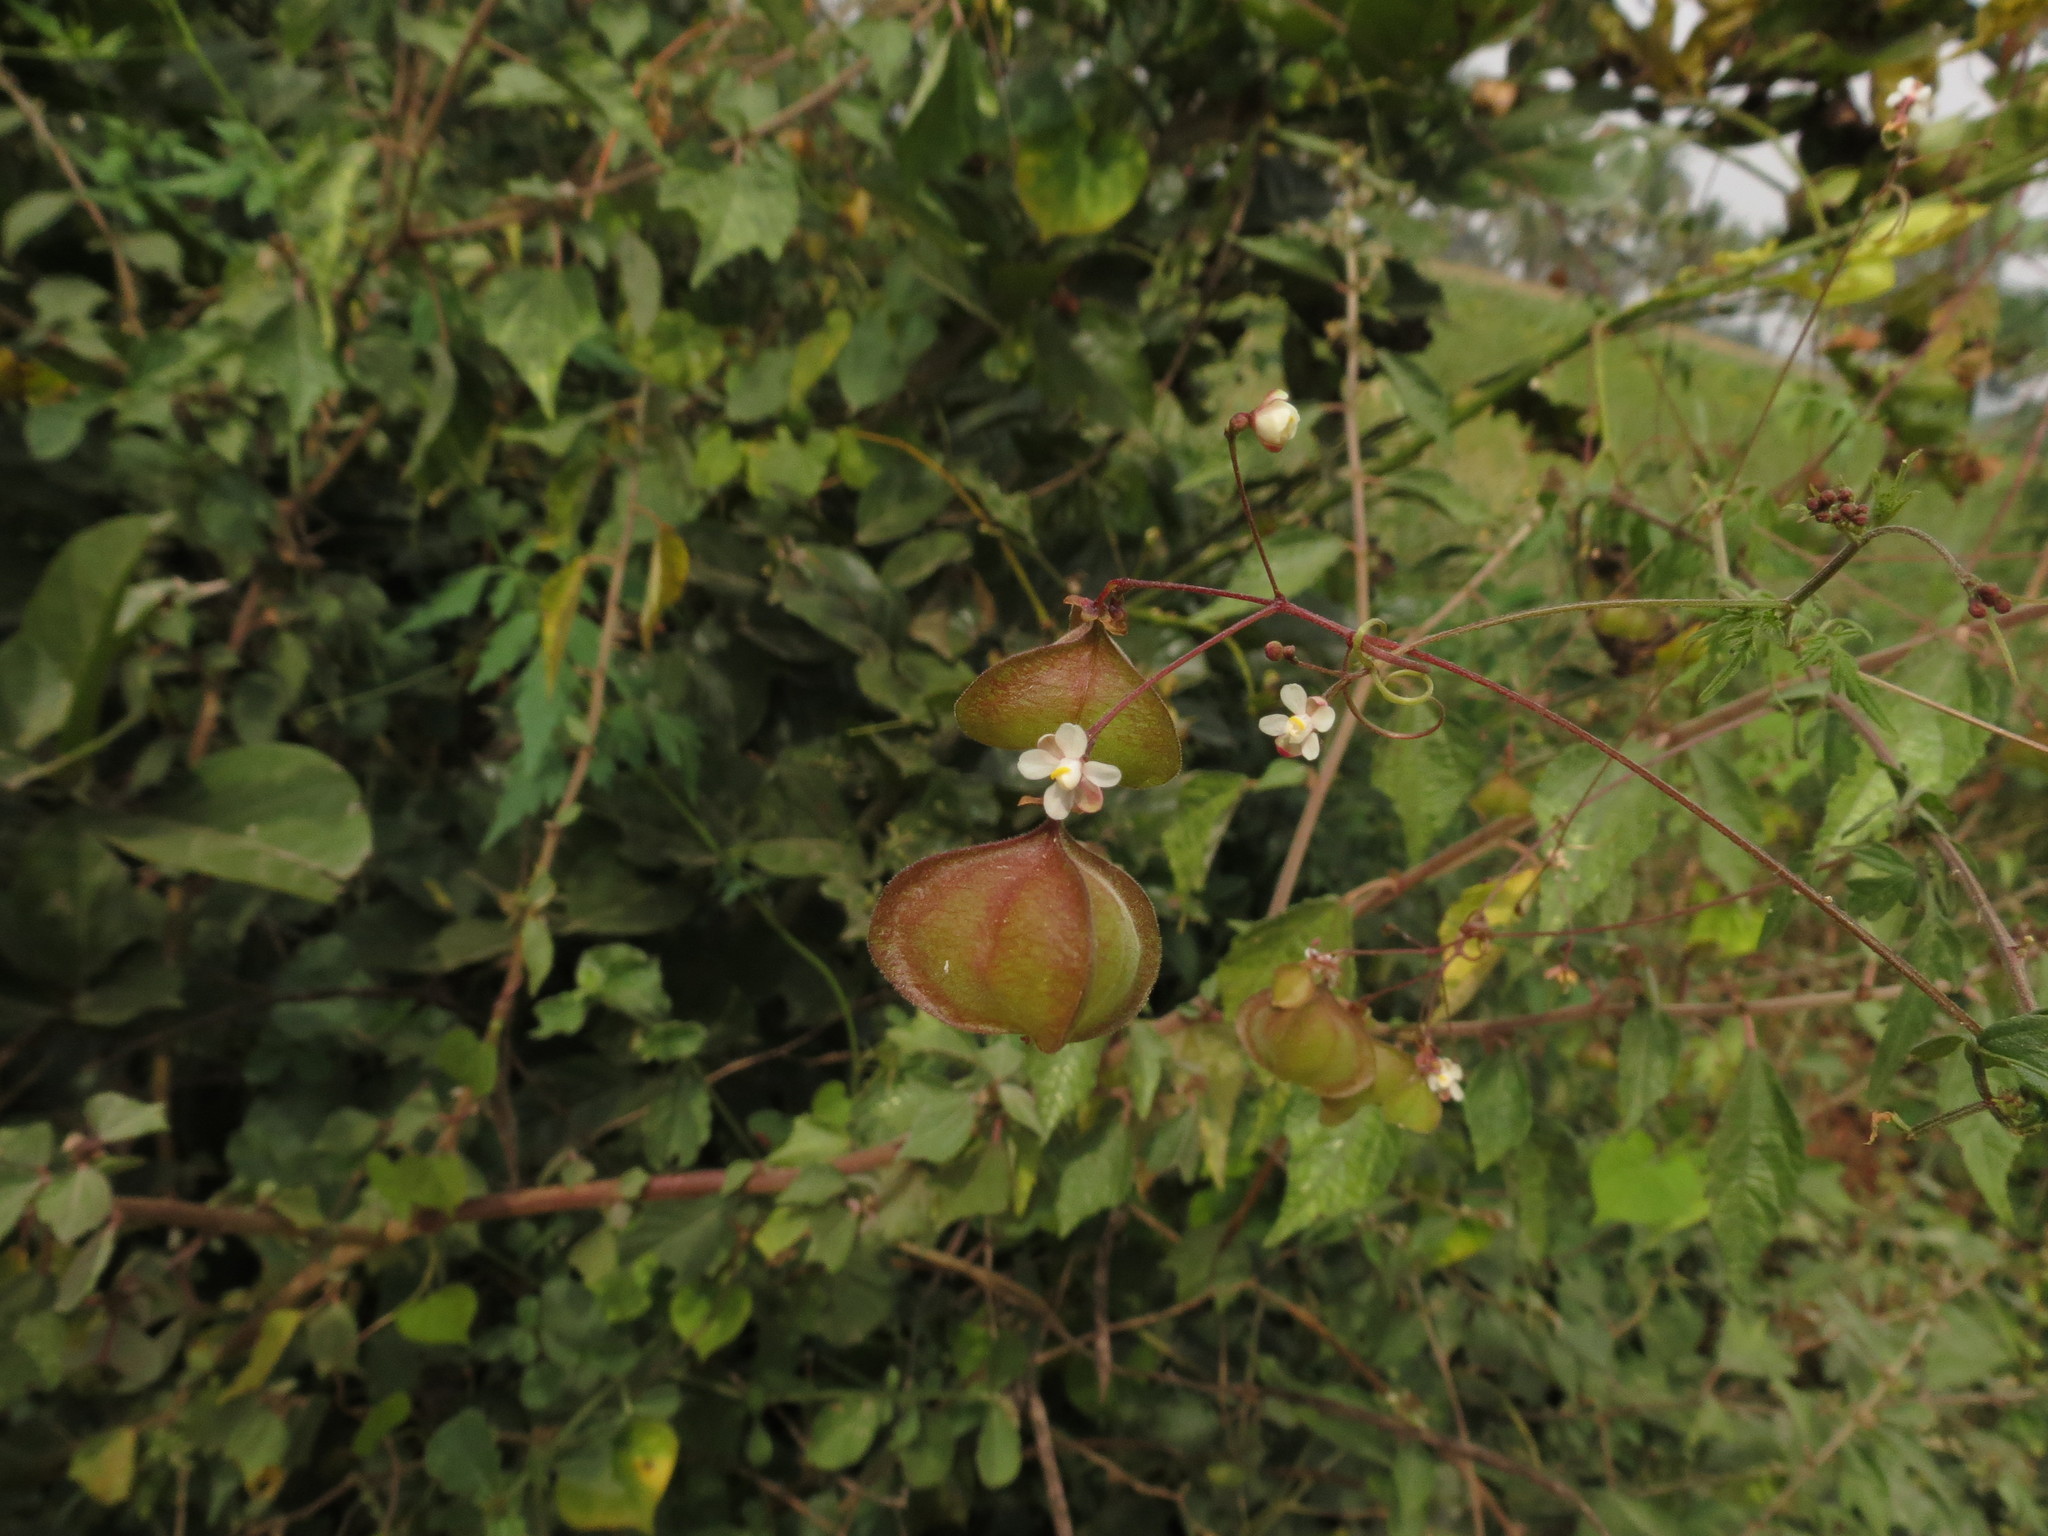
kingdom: Plantae
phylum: Tracheophyta
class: Magnoliopsida
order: Sapindales
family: Sapindaceae
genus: Cardiospermum
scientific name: Cardiospermum halicacabum
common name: Balloon vine
